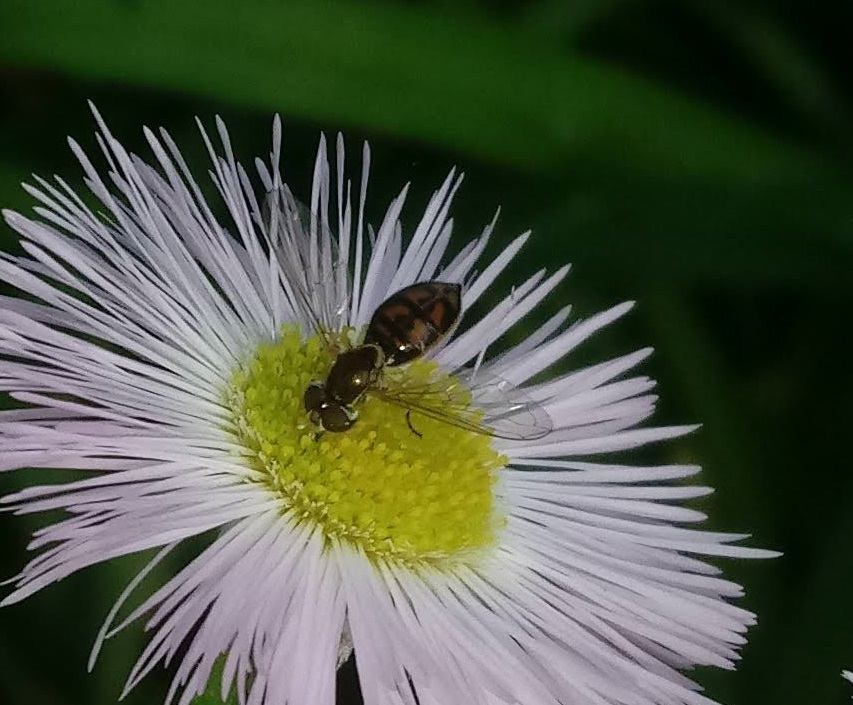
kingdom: Animalia
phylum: Arthropoda
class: Insecta
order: Diptera
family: Syrphidae
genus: Toxomerus
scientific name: Toxomerus marginatus
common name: Syrphid fly
